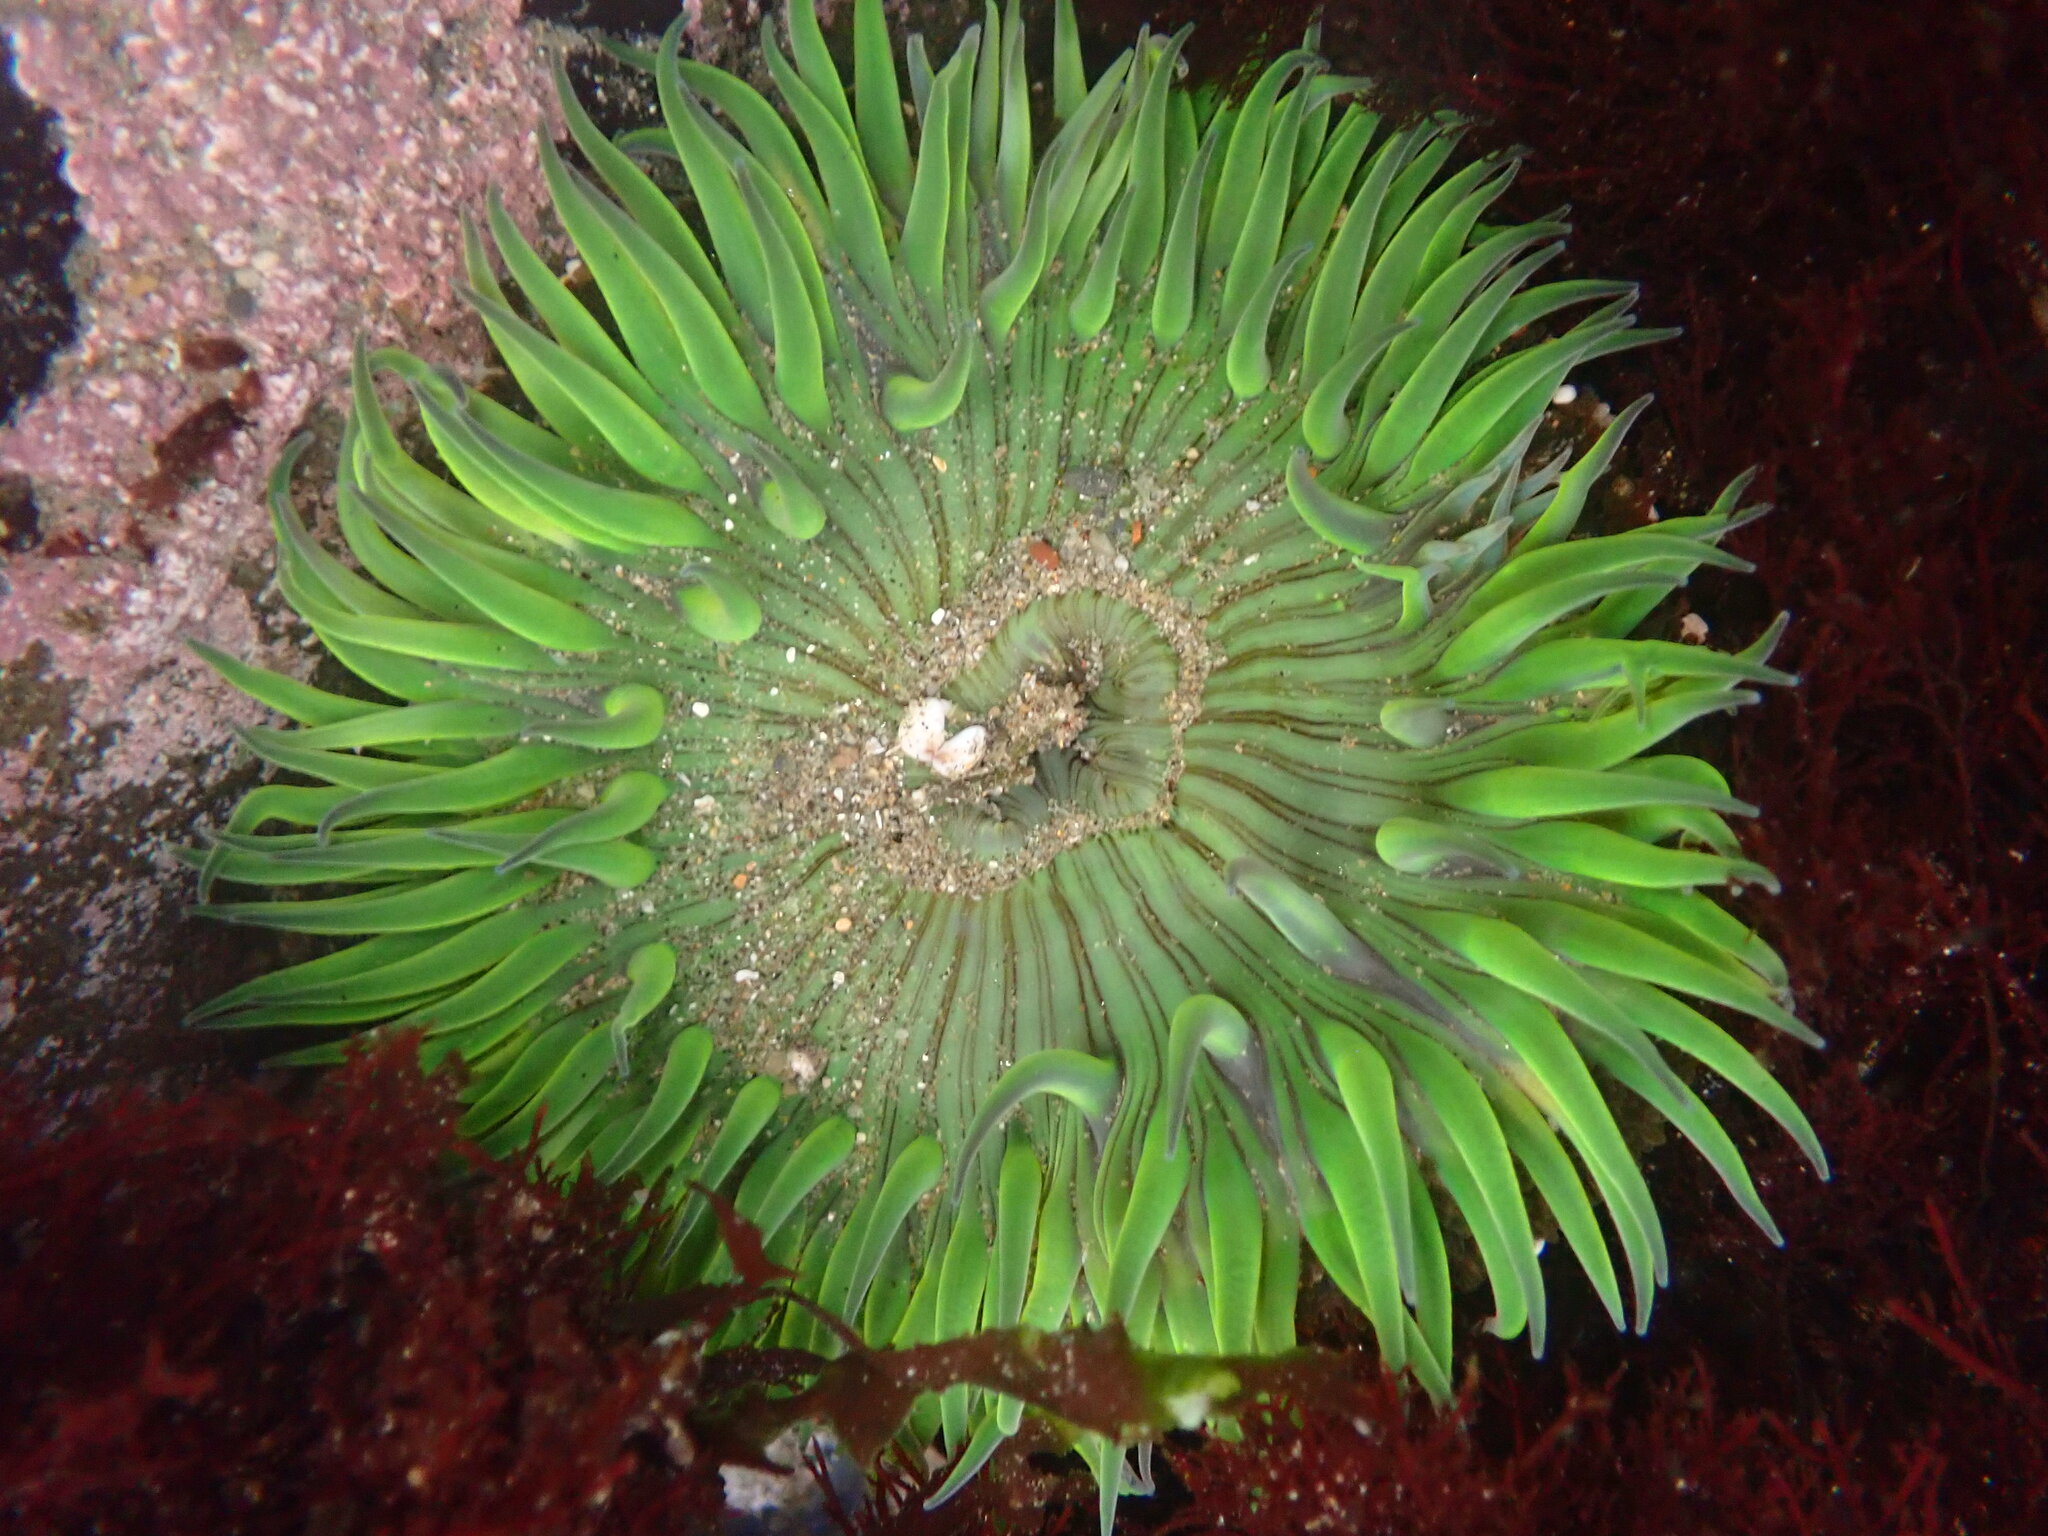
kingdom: Animalia
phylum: Cnidaria
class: Anthozoa
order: Actiniaria
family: Actiniidae
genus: Anthopleura
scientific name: Anthopleura sola
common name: Sun anemone
